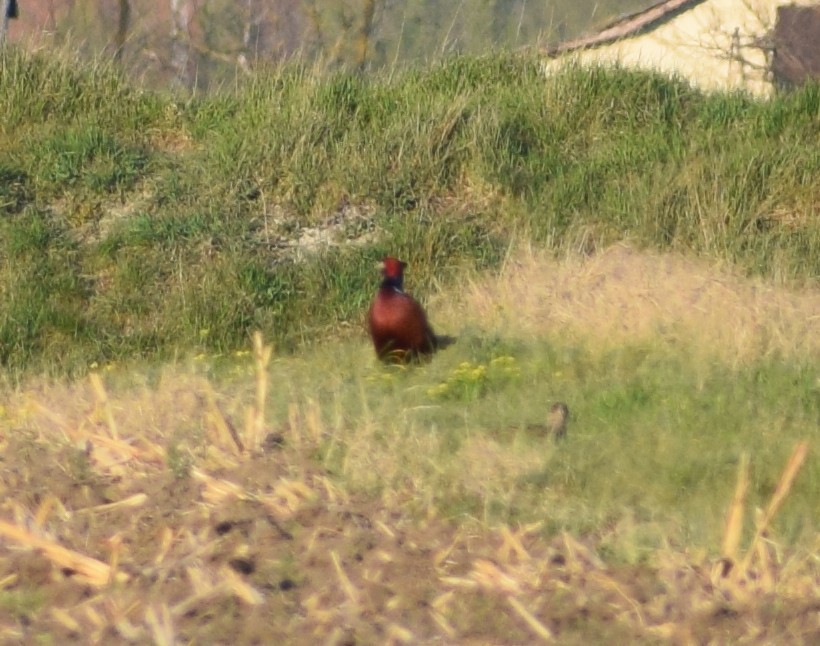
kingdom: Animalia
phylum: Chordata
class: Aves
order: Galliformes
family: Phasianidae
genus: Phasianus
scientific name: Phasianus colchicus
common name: Common pheasant
